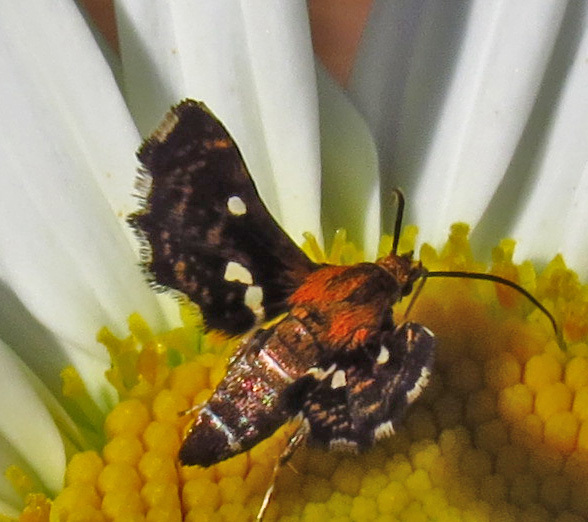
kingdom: Animalia
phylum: Arthropoda
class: Insecta
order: Lepidoptera
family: Thyrididae
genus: Thyris
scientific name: Thyris maculata
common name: Spotted thyris moth
